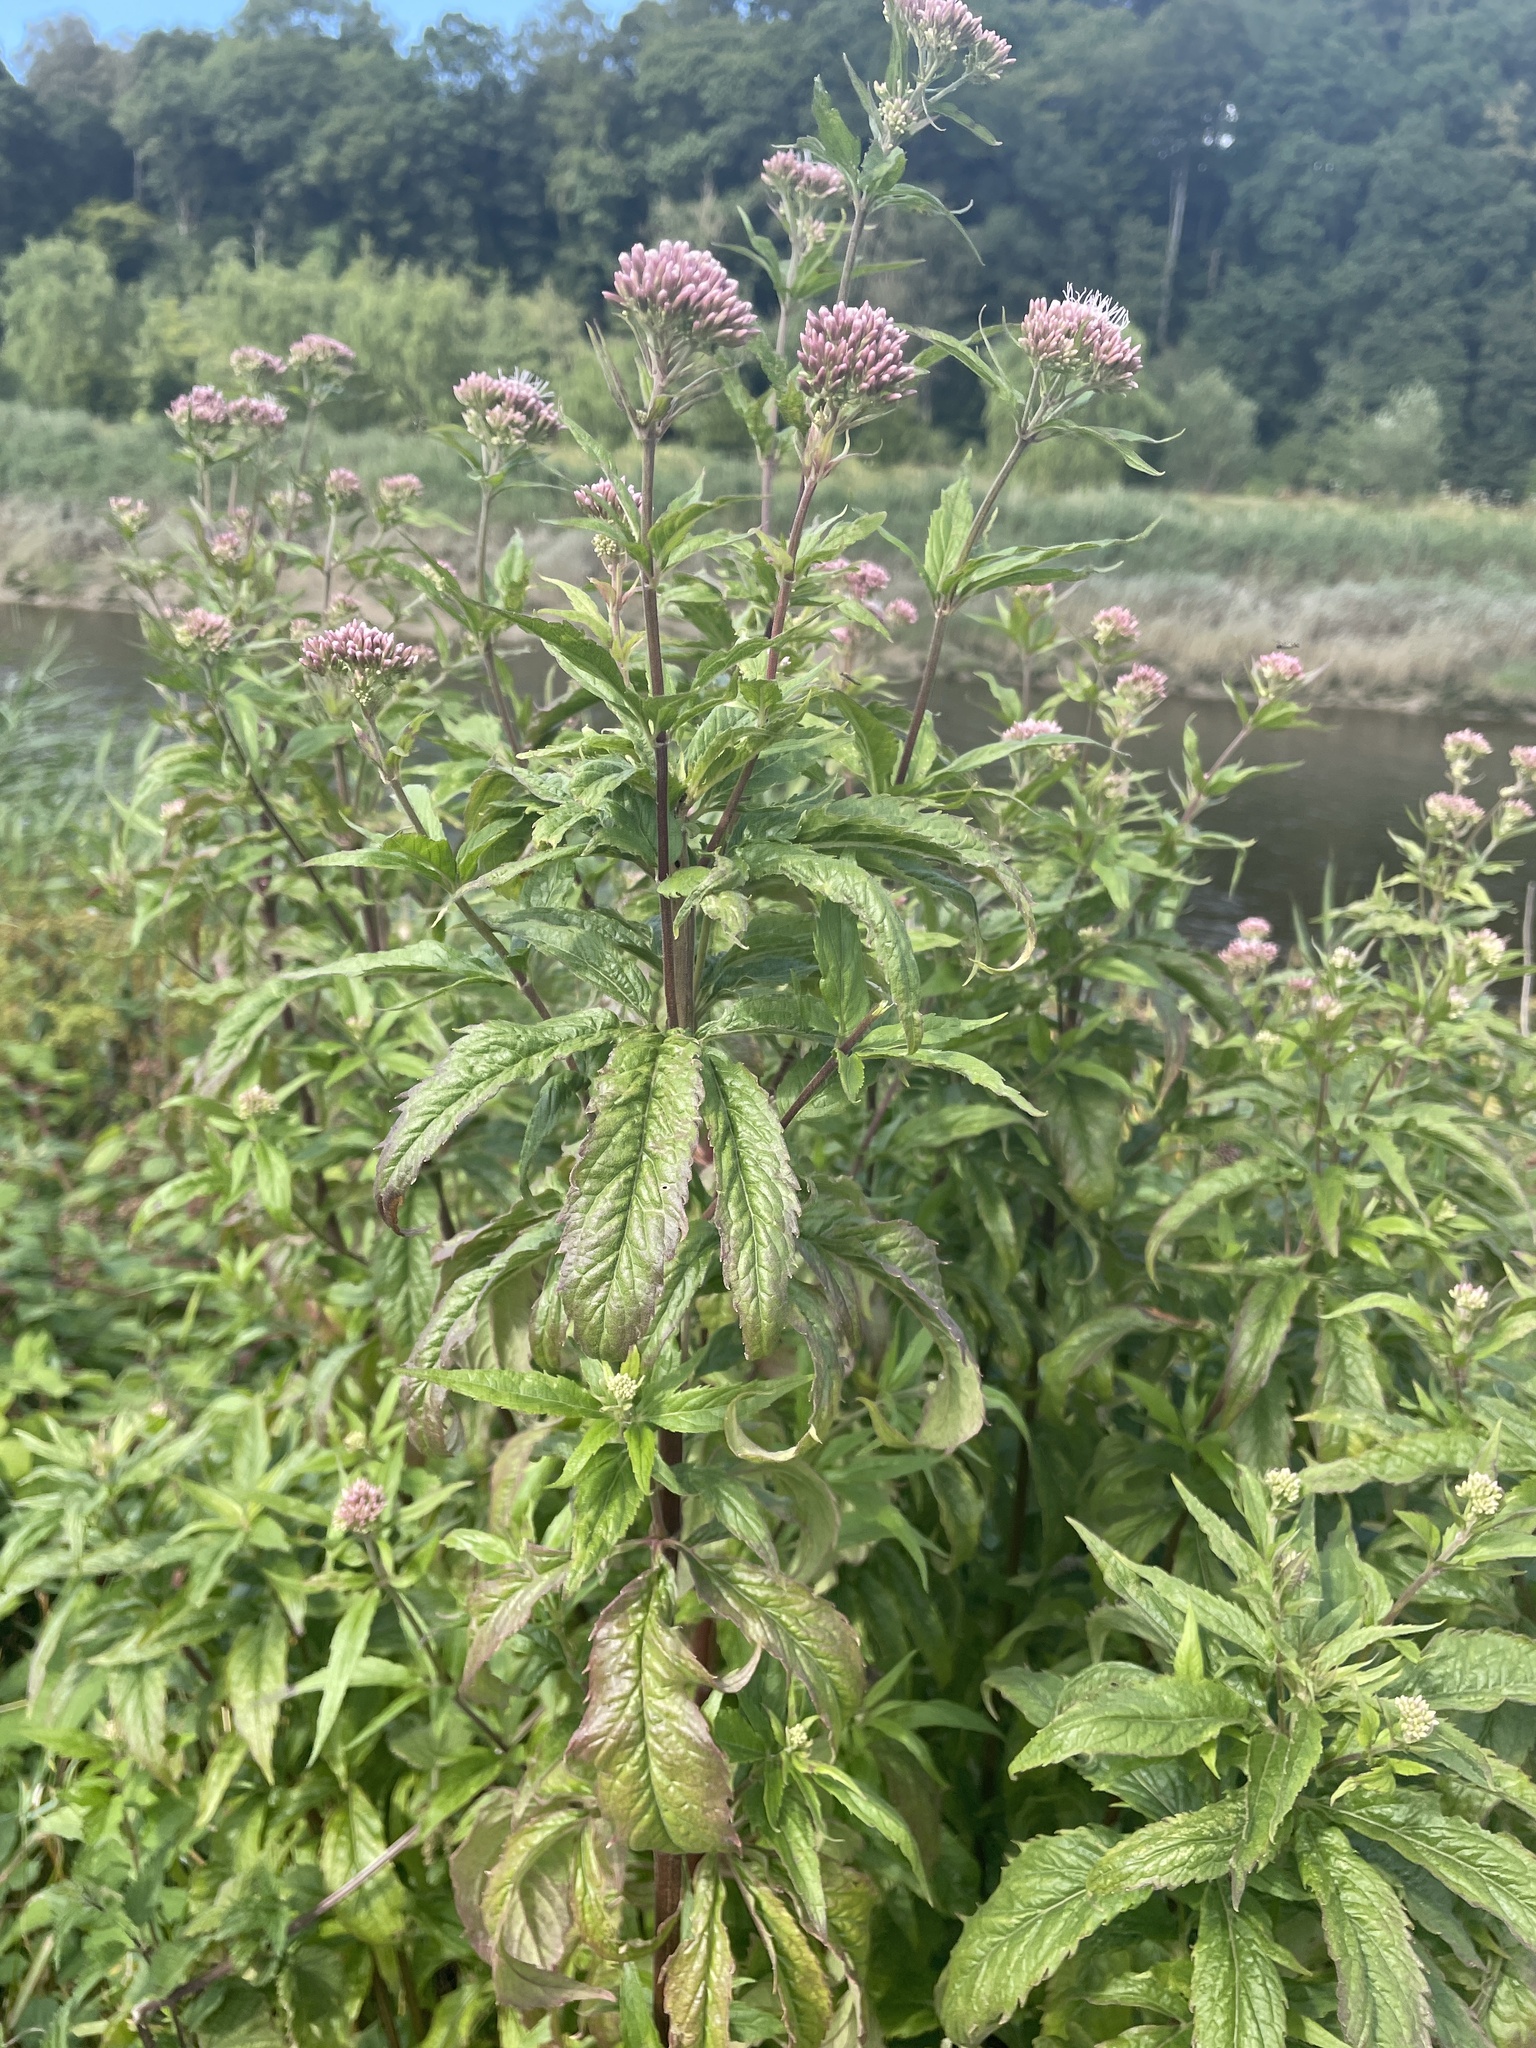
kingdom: Plantae
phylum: Tracheophyta
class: Magnoliopsida
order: Asterales
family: Asteraceae
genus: Eupatorium
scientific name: Eupatorium cannabinum
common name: Hemp-agrimony
